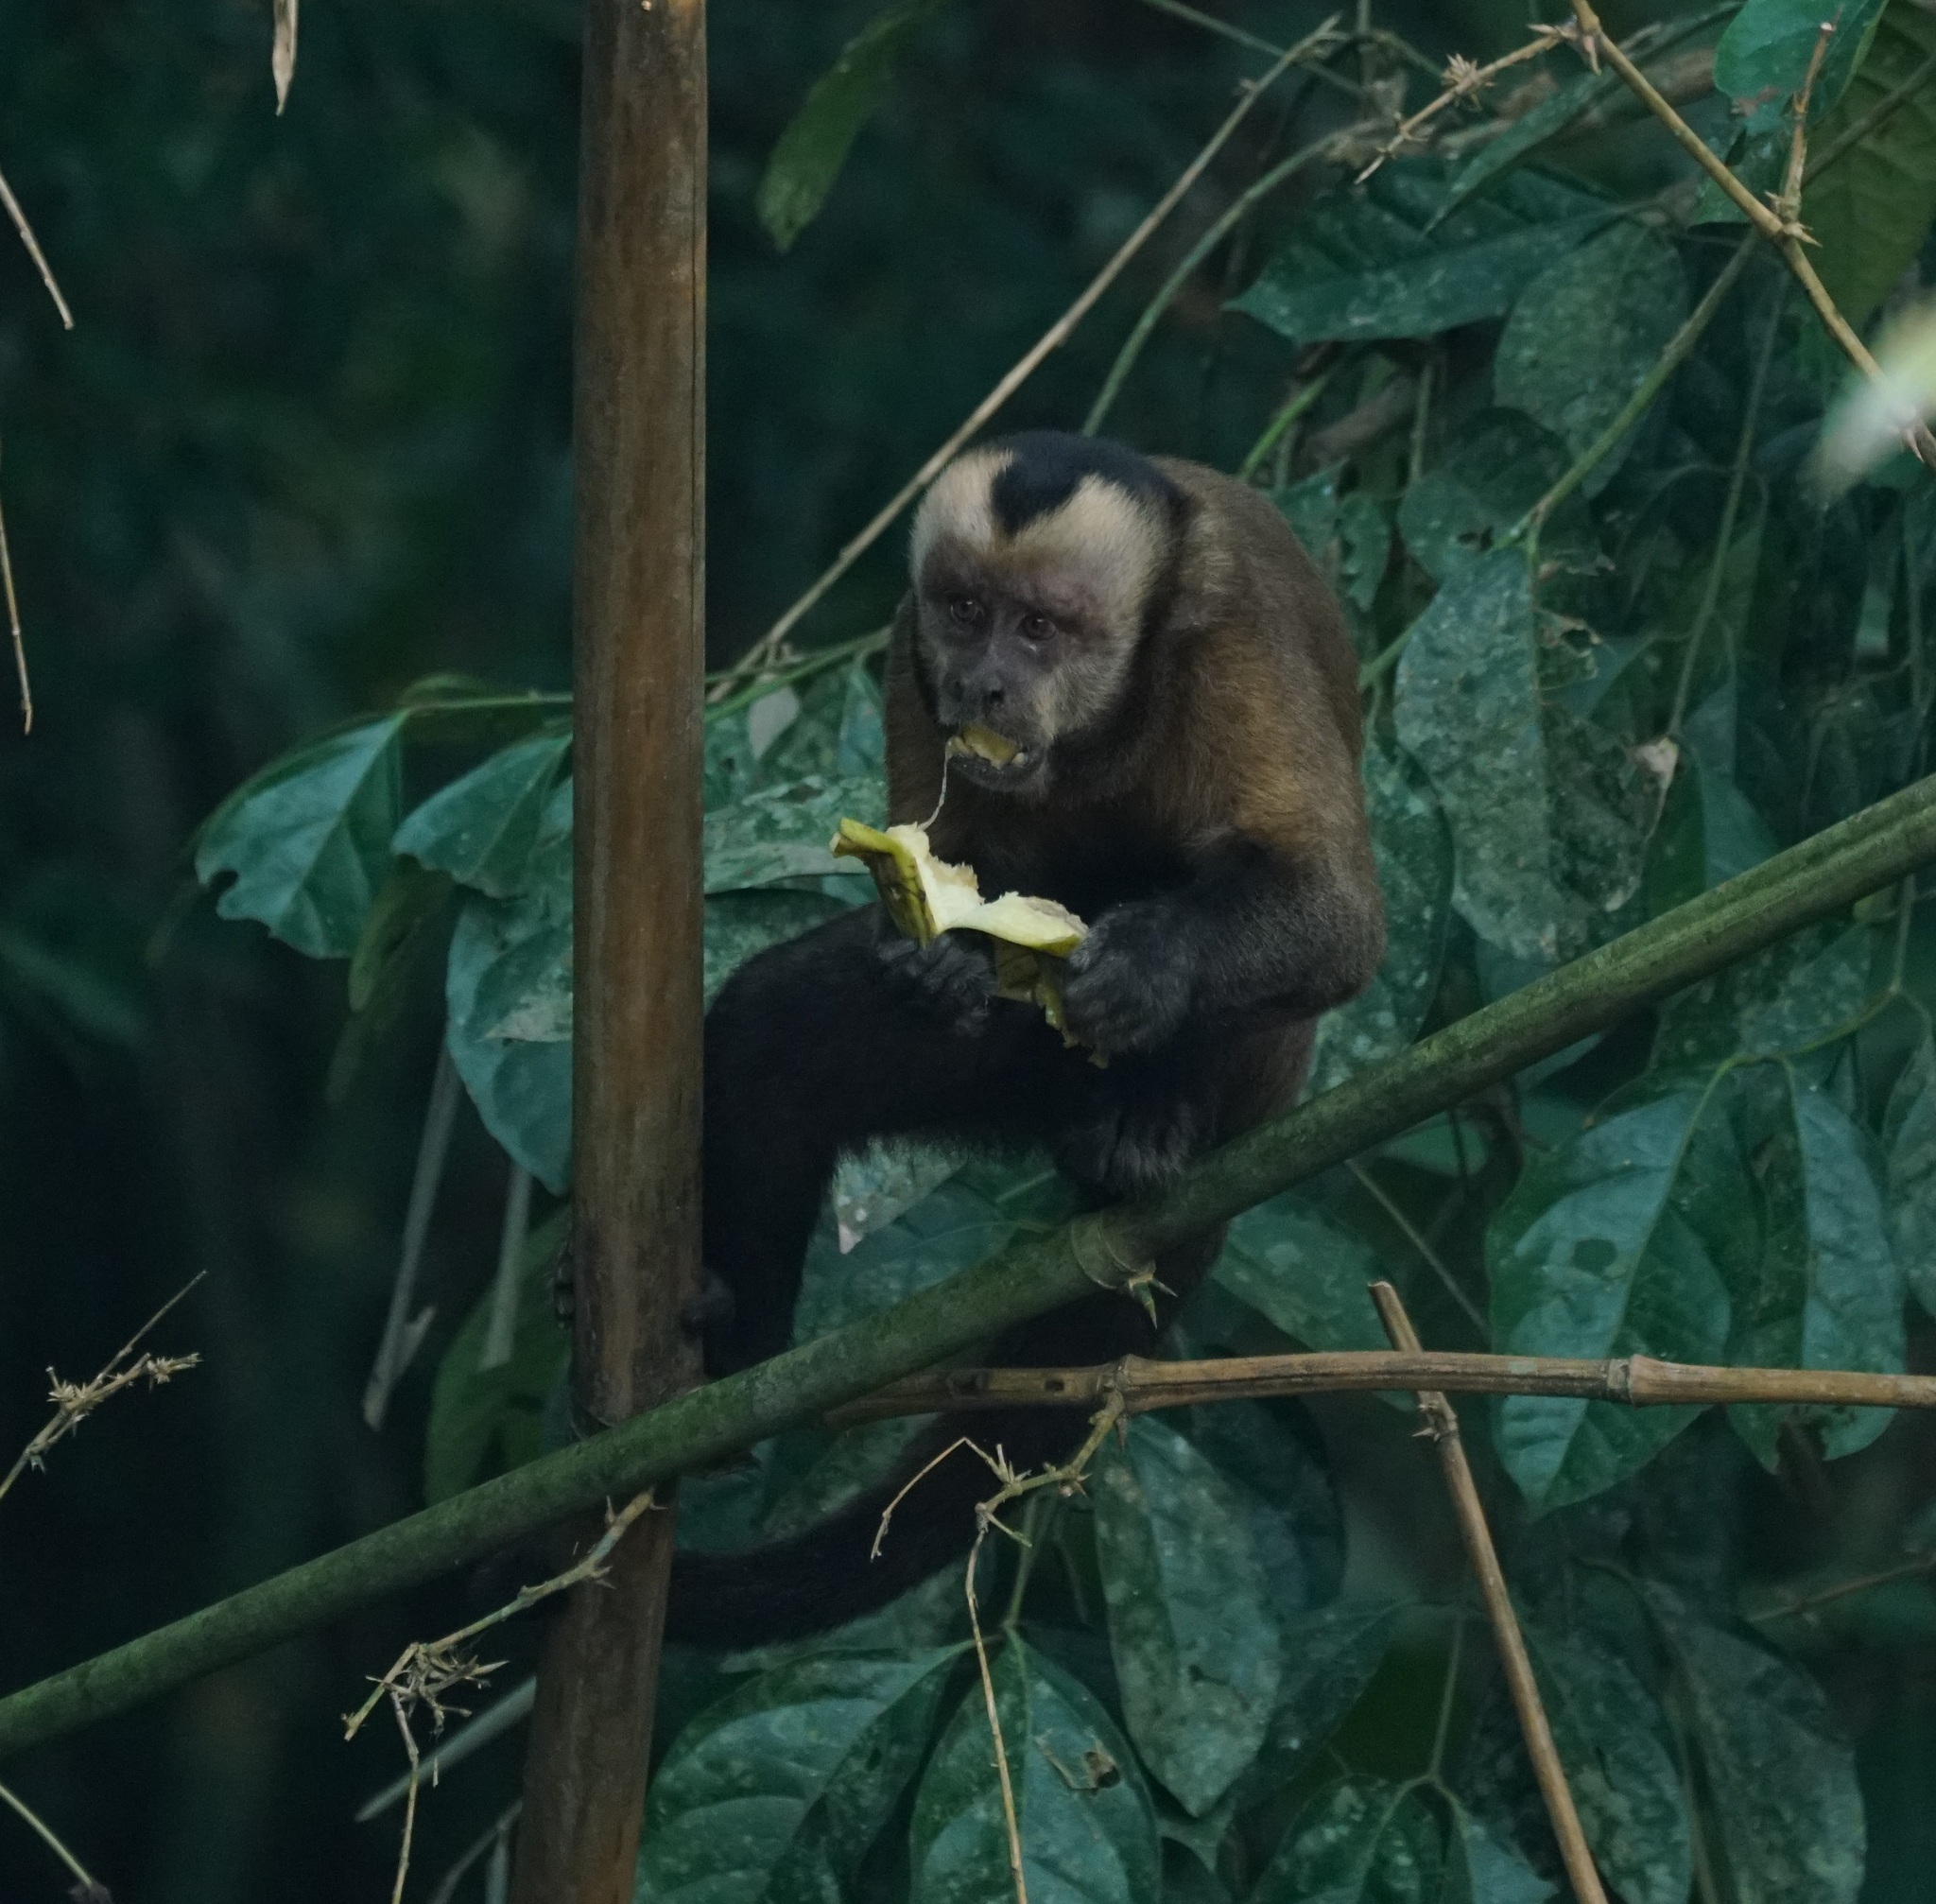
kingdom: Animalia
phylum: Chordata
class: Mammalia
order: Primates
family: Cebidae
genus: Sapajus
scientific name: Sapajus apella
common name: Tufted capuchin
